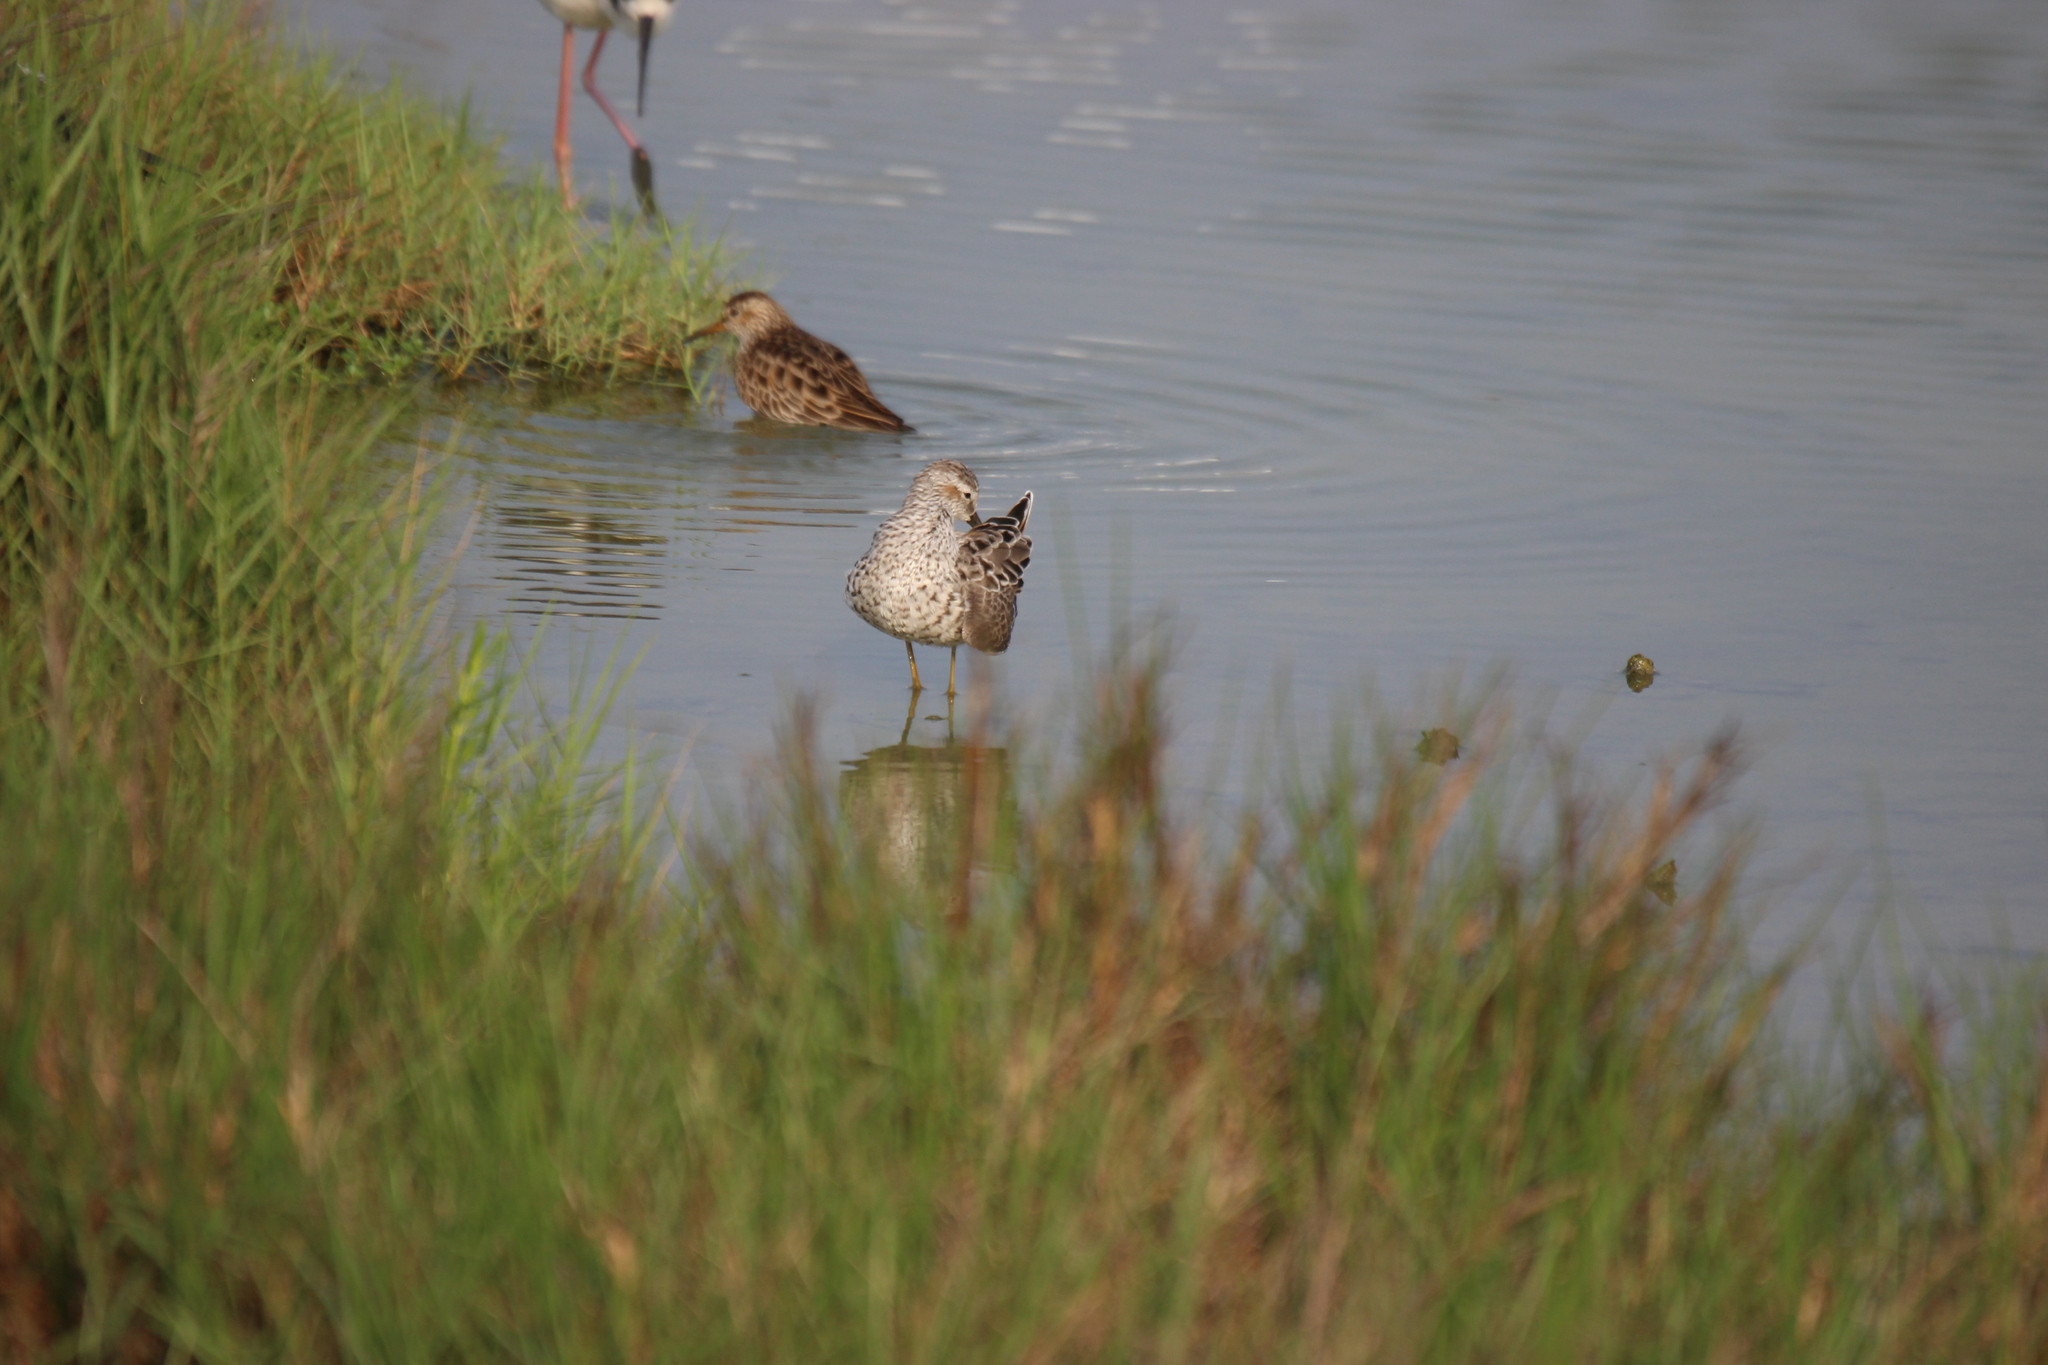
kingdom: Animalia
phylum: Chordata
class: Aves
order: Charadriiformes
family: Scolopacidae
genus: Calidris
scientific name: Calidris himantopus
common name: Stilt sandpiper
